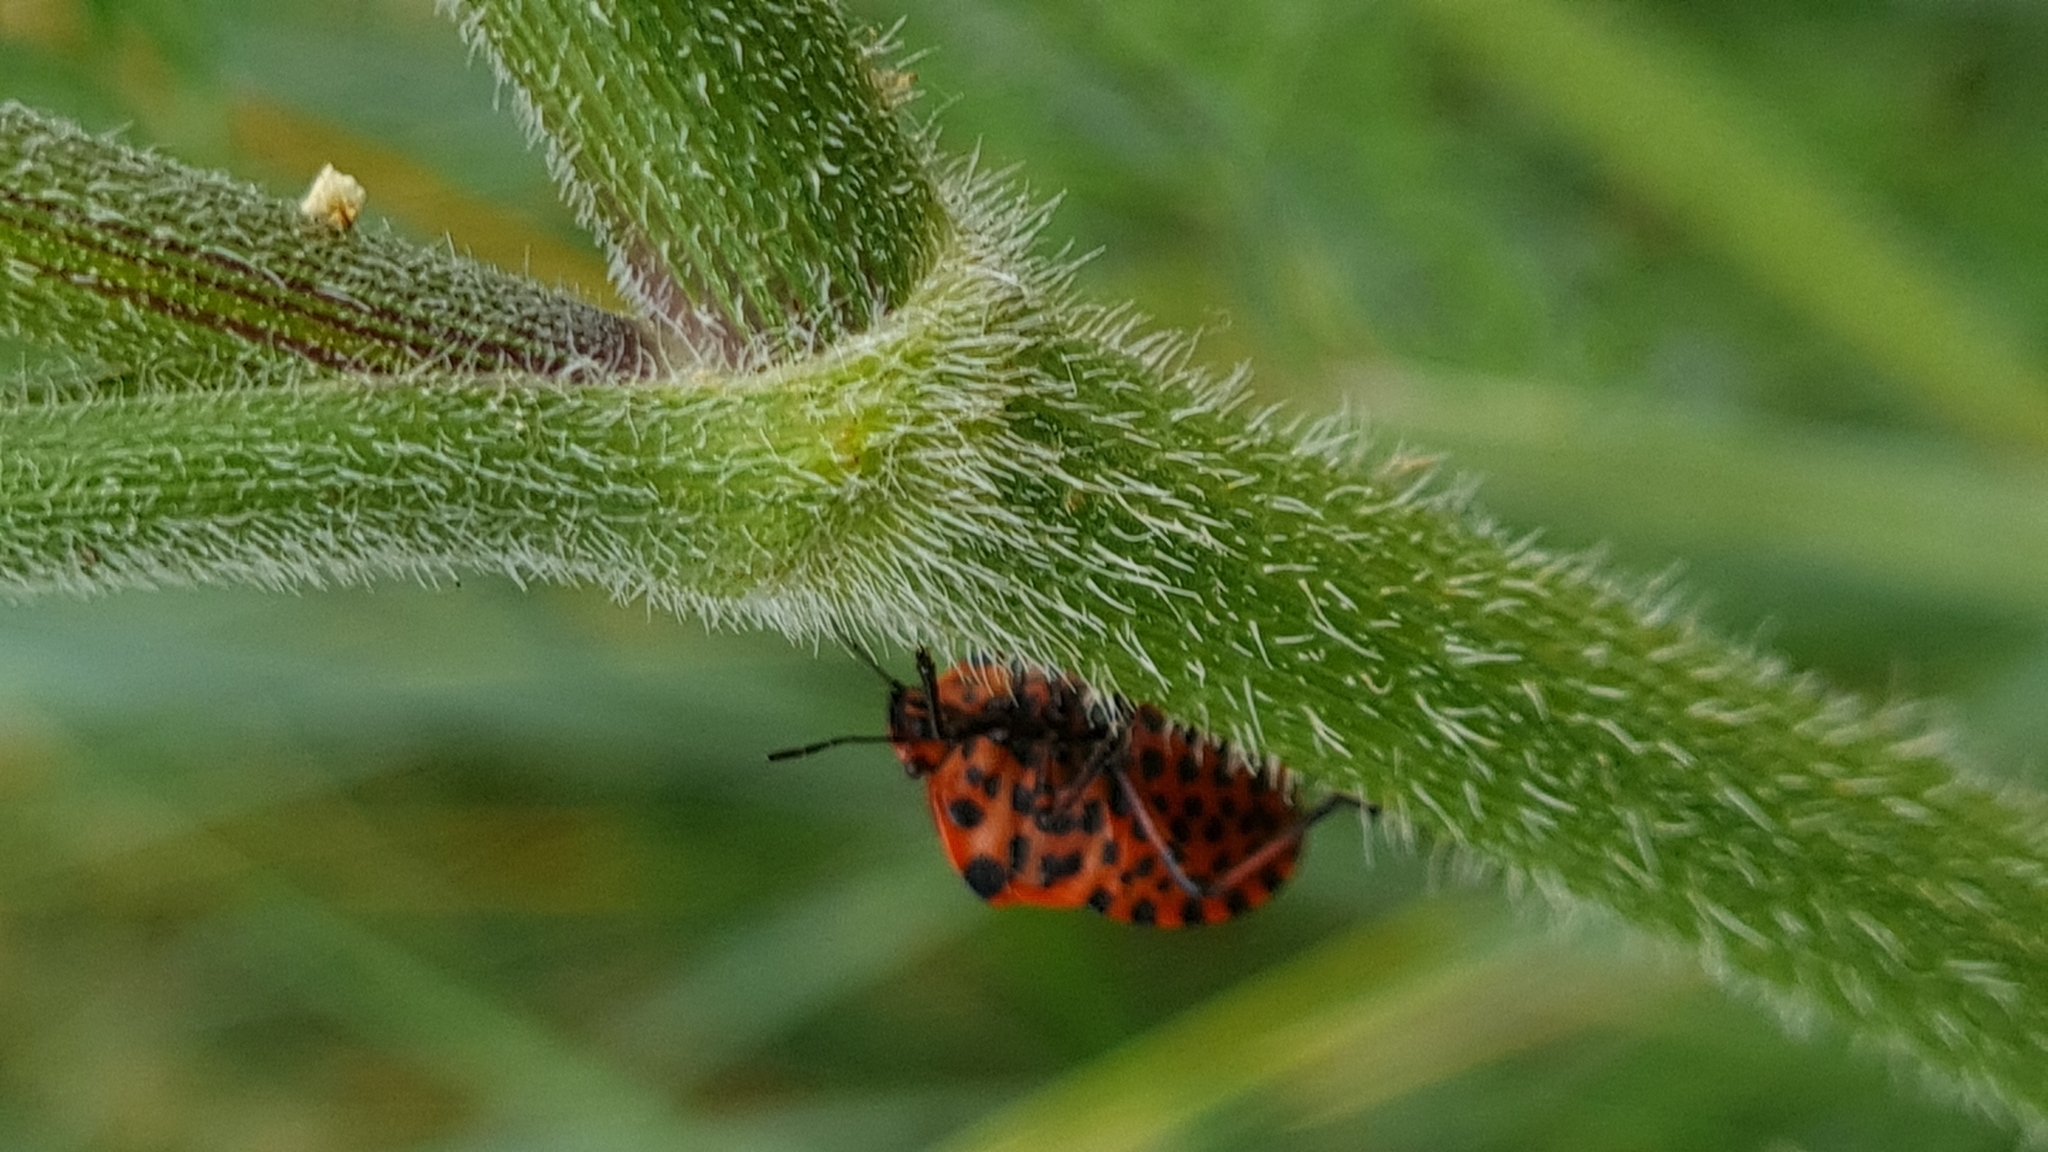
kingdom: Animalia
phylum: Arthropoda
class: Insecta
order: Hemiptera
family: Pentatomidae
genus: Graphosoma
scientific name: Graphosoma italicum
